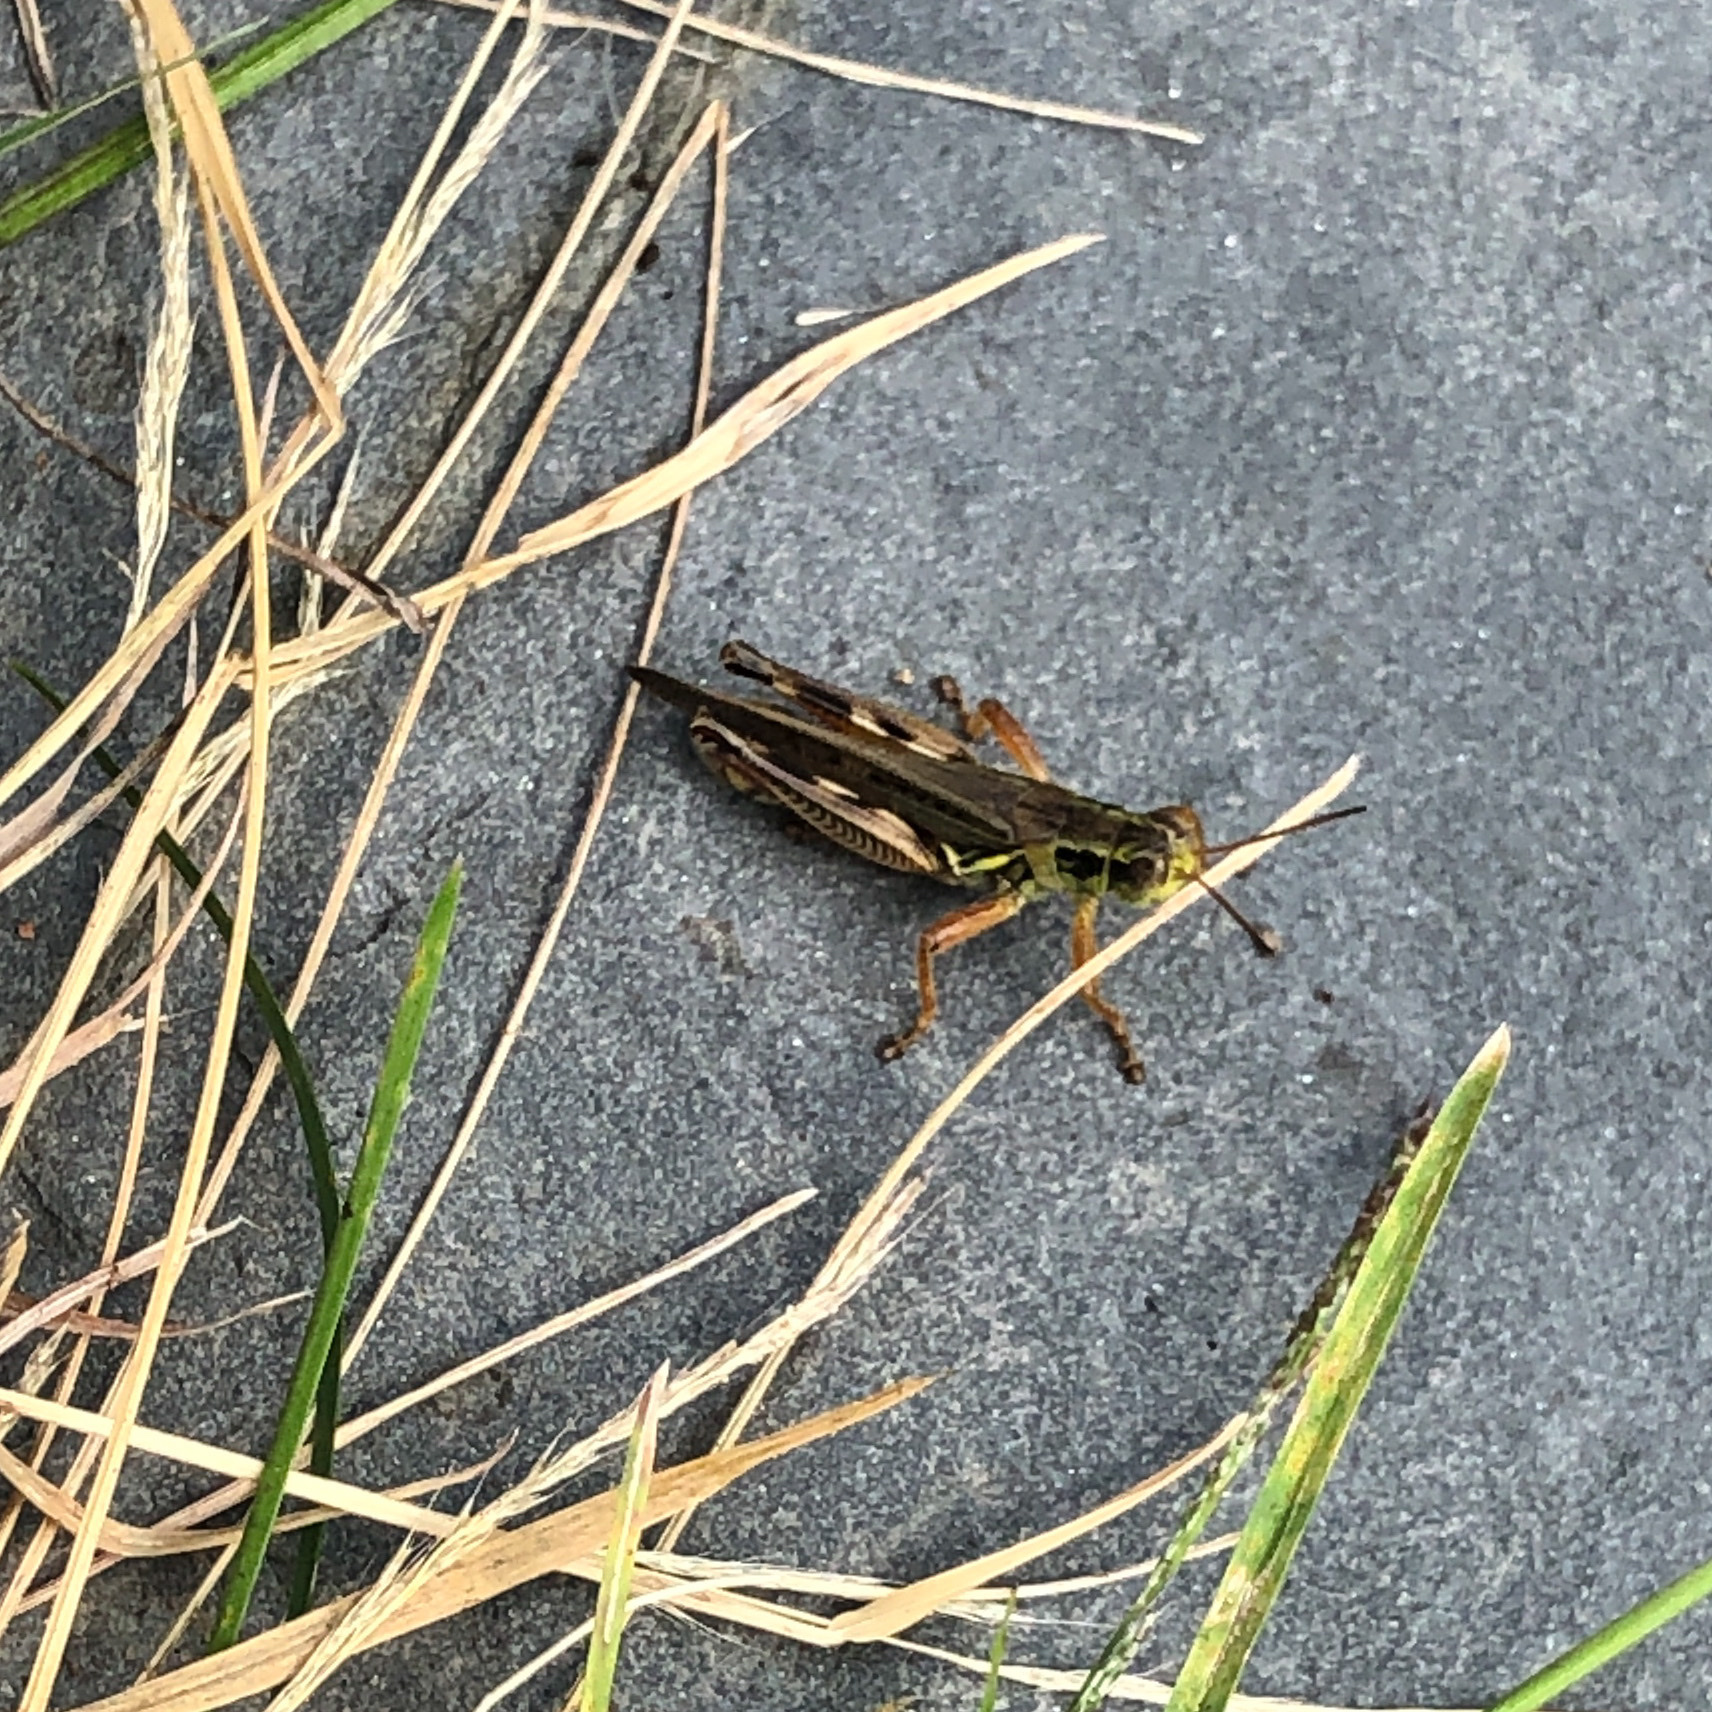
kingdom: Animalia
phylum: Arthropoda
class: Insecta
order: Orthoptera
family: Acrididae
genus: Melanoplus
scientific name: Melanoplus femurrubrum
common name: Red-legged grasshopper
